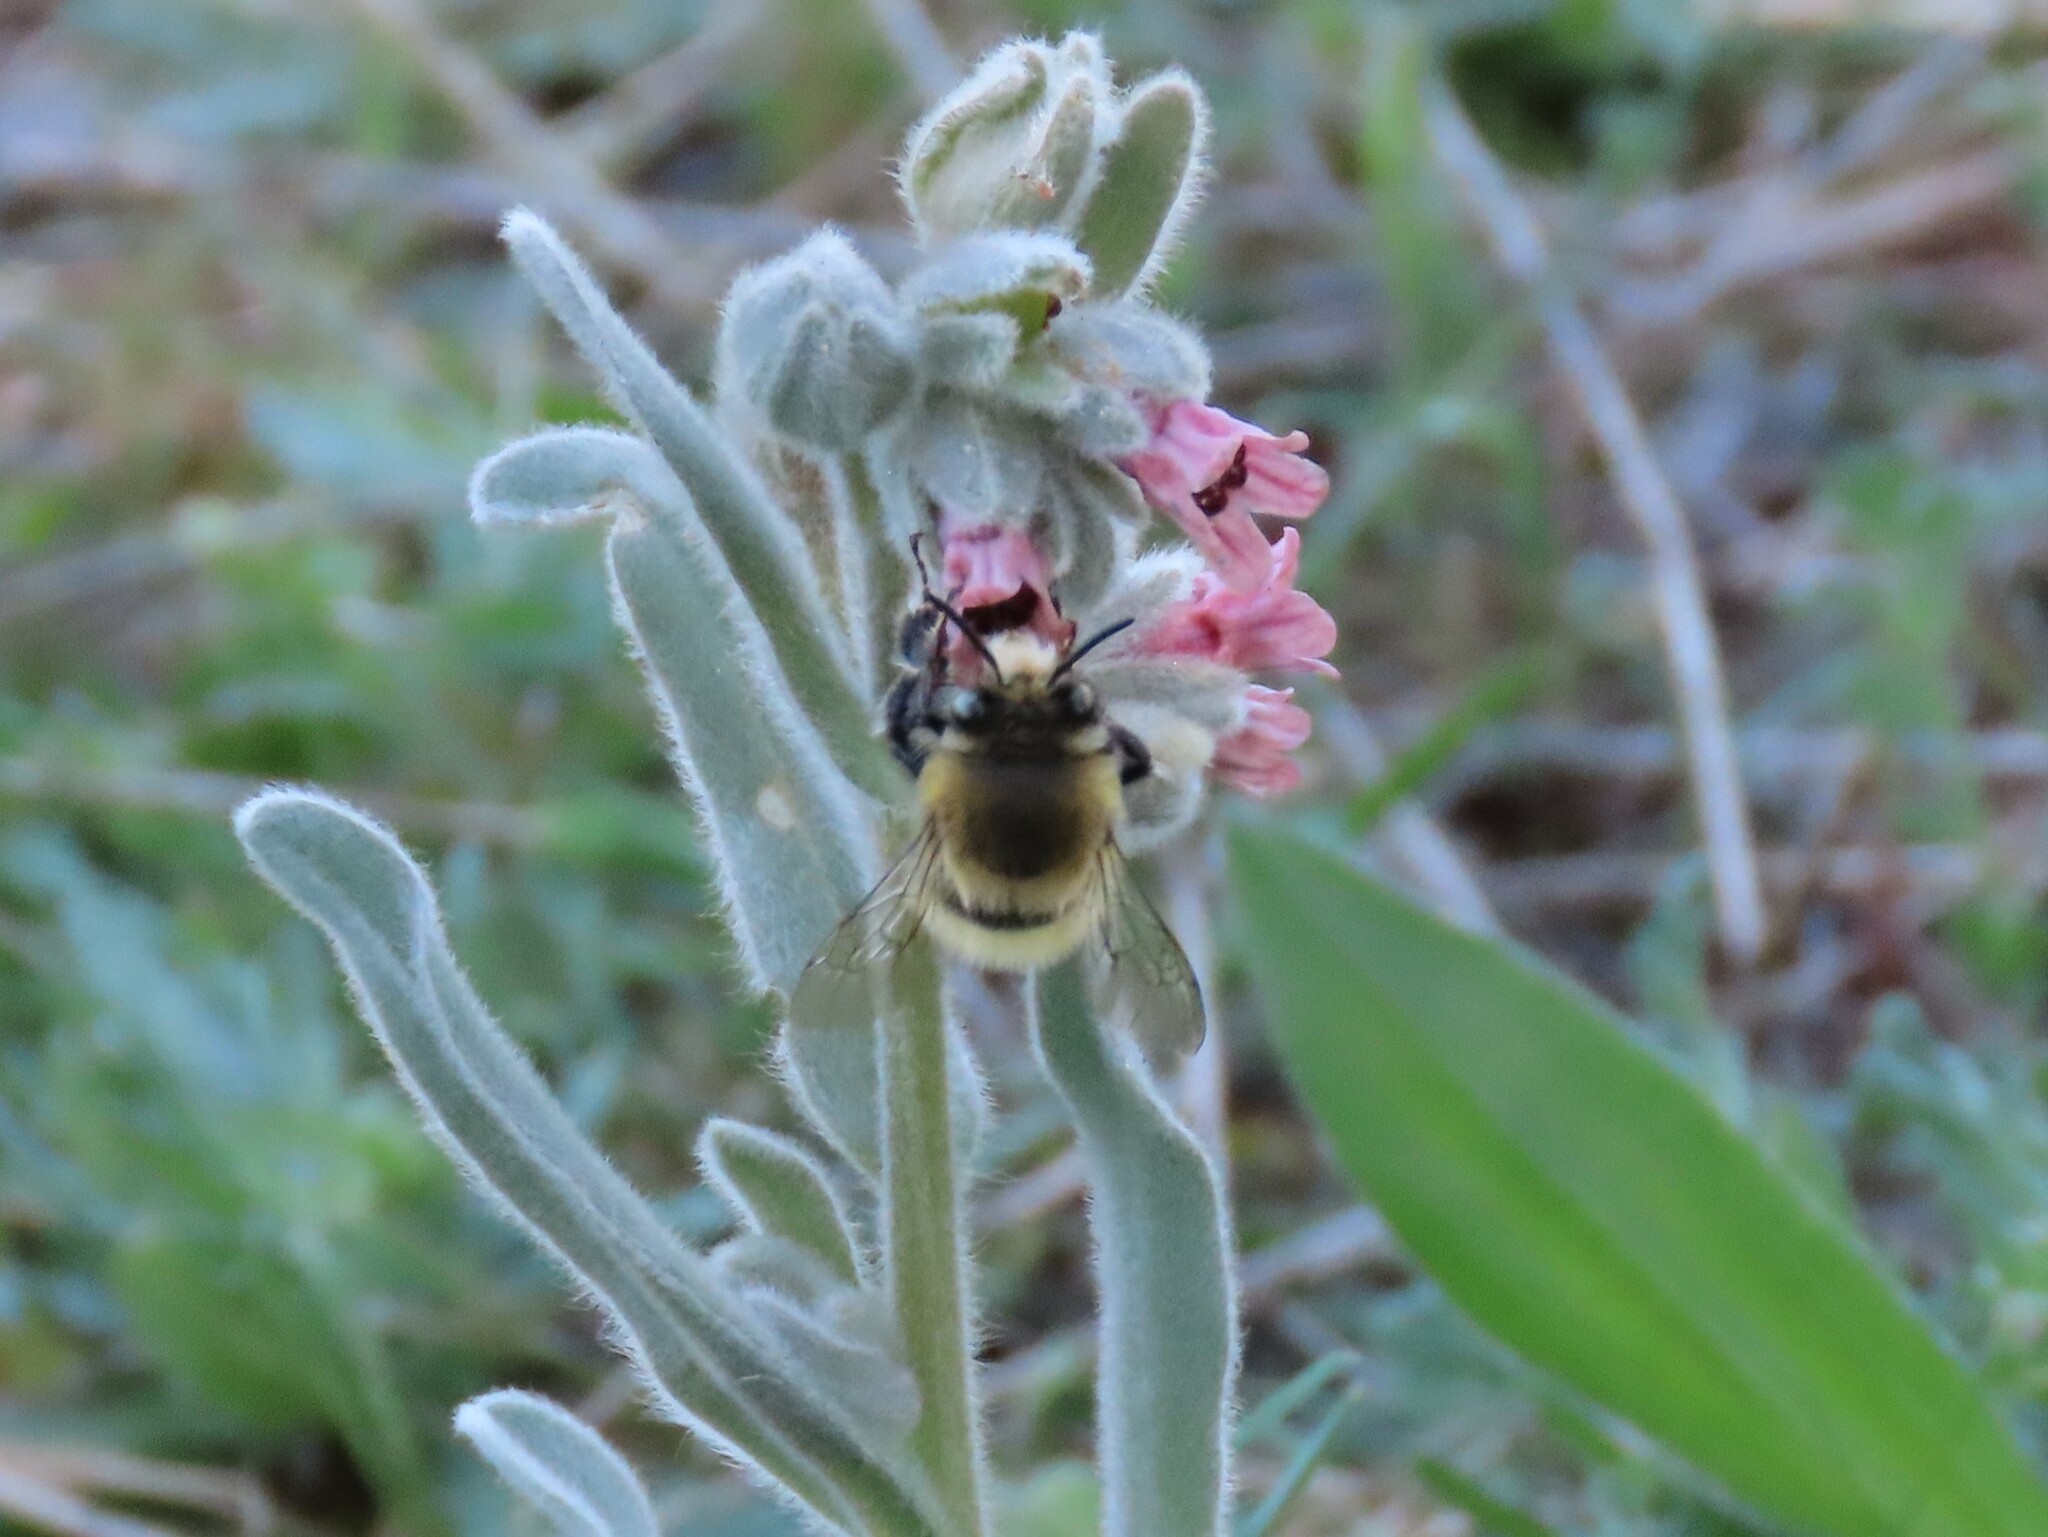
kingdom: Plantae
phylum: Tracheophyta
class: Magnoliopsida
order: Boraginales
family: Boraginaceae
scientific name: Boraginaceae
